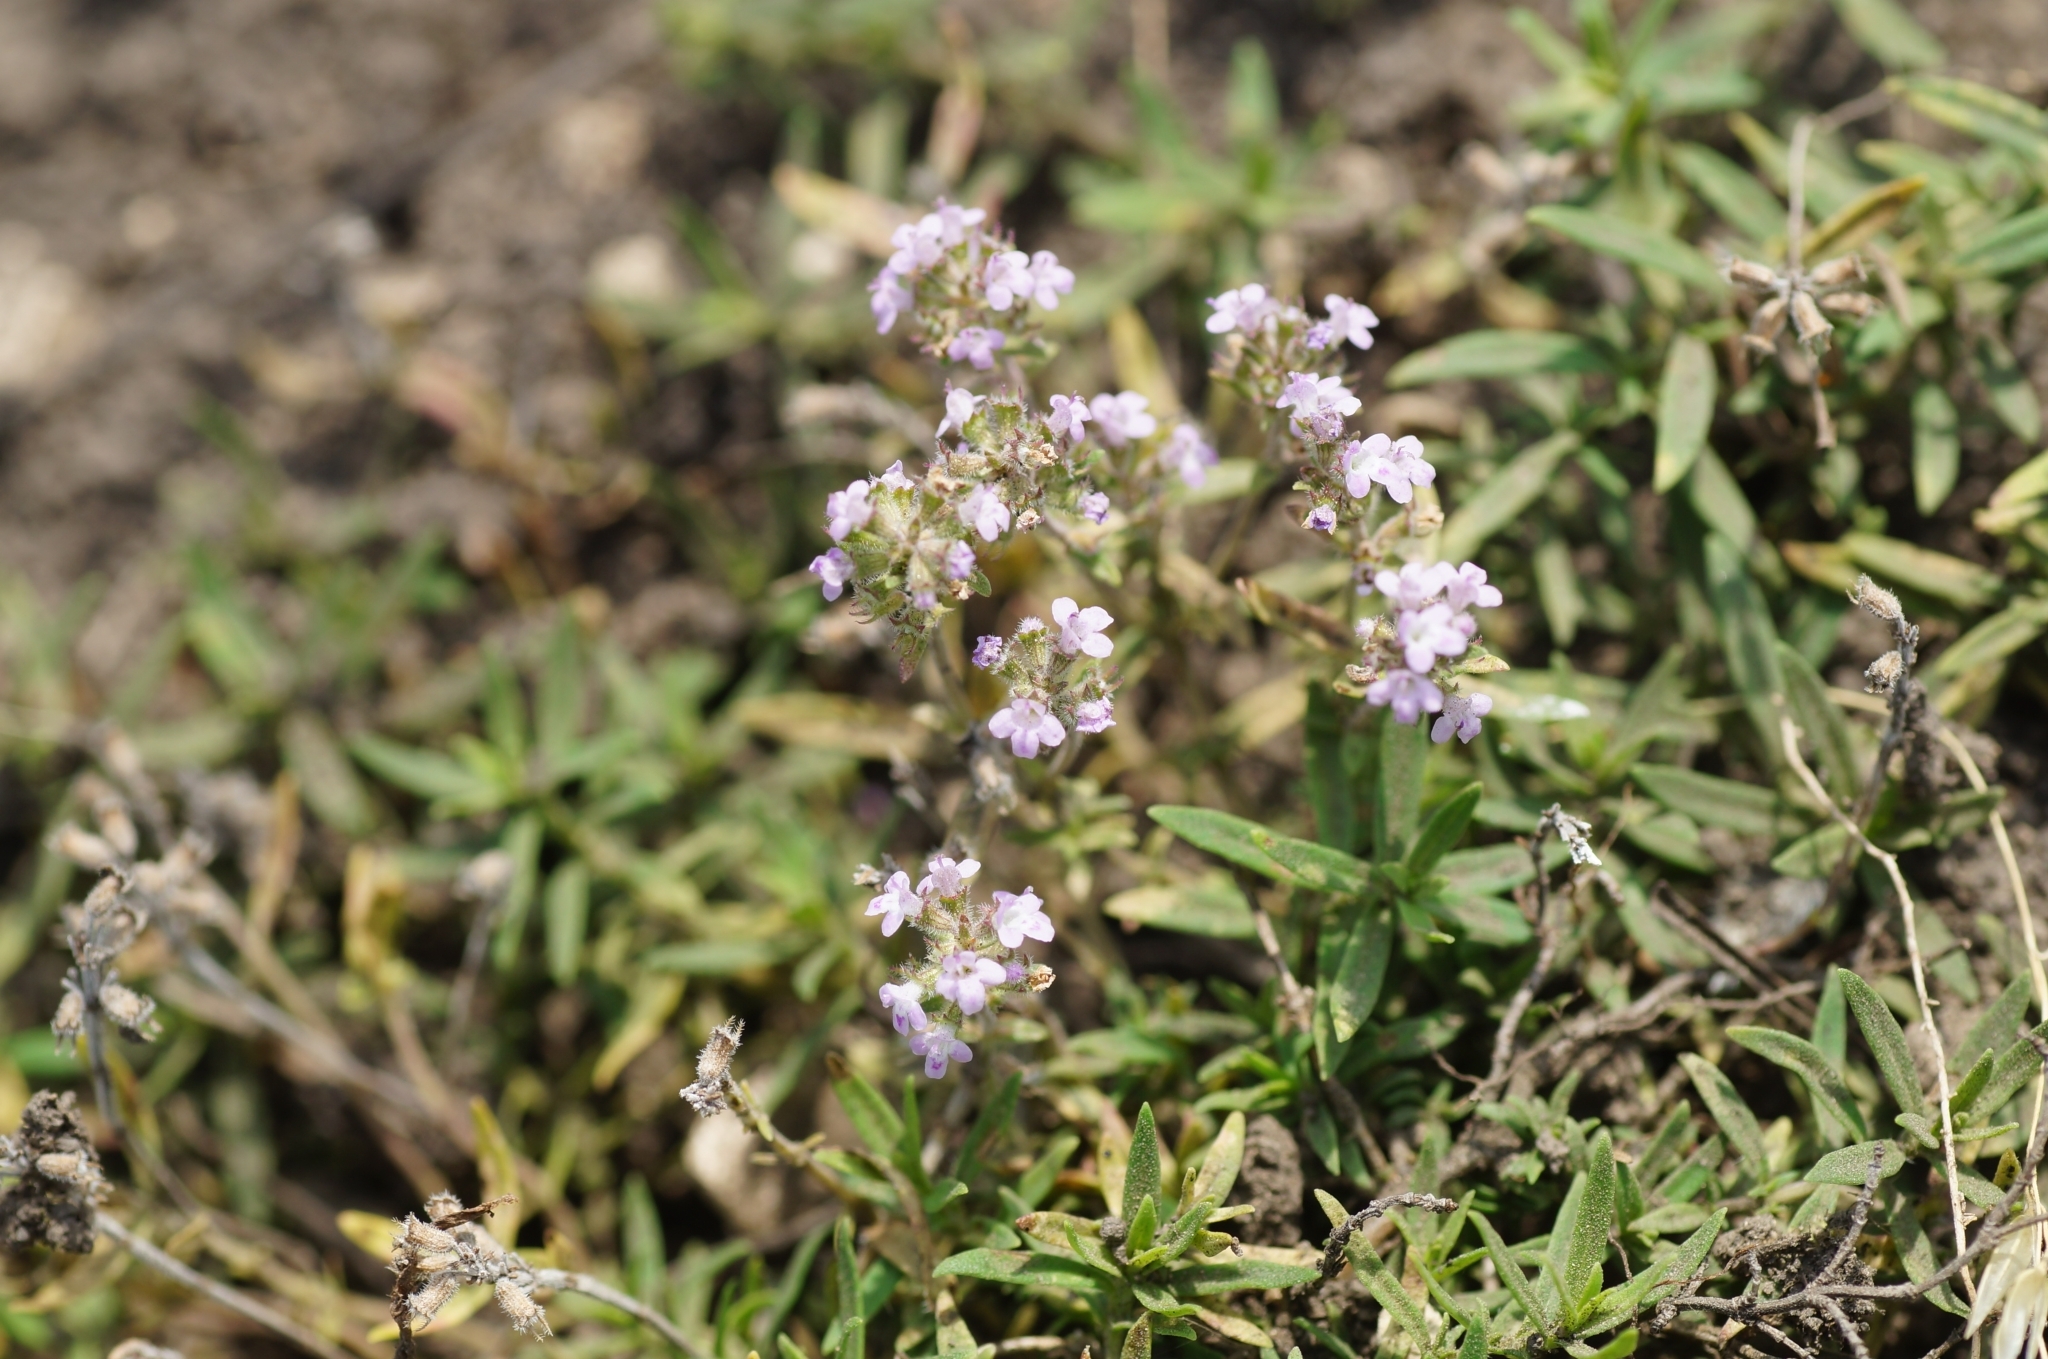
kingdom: Plantae
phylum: Tracheophyta
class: Magnoliopsida
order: Lamiales
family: Lamiaceae
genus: Thymus
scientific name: Thymus pannonicus
